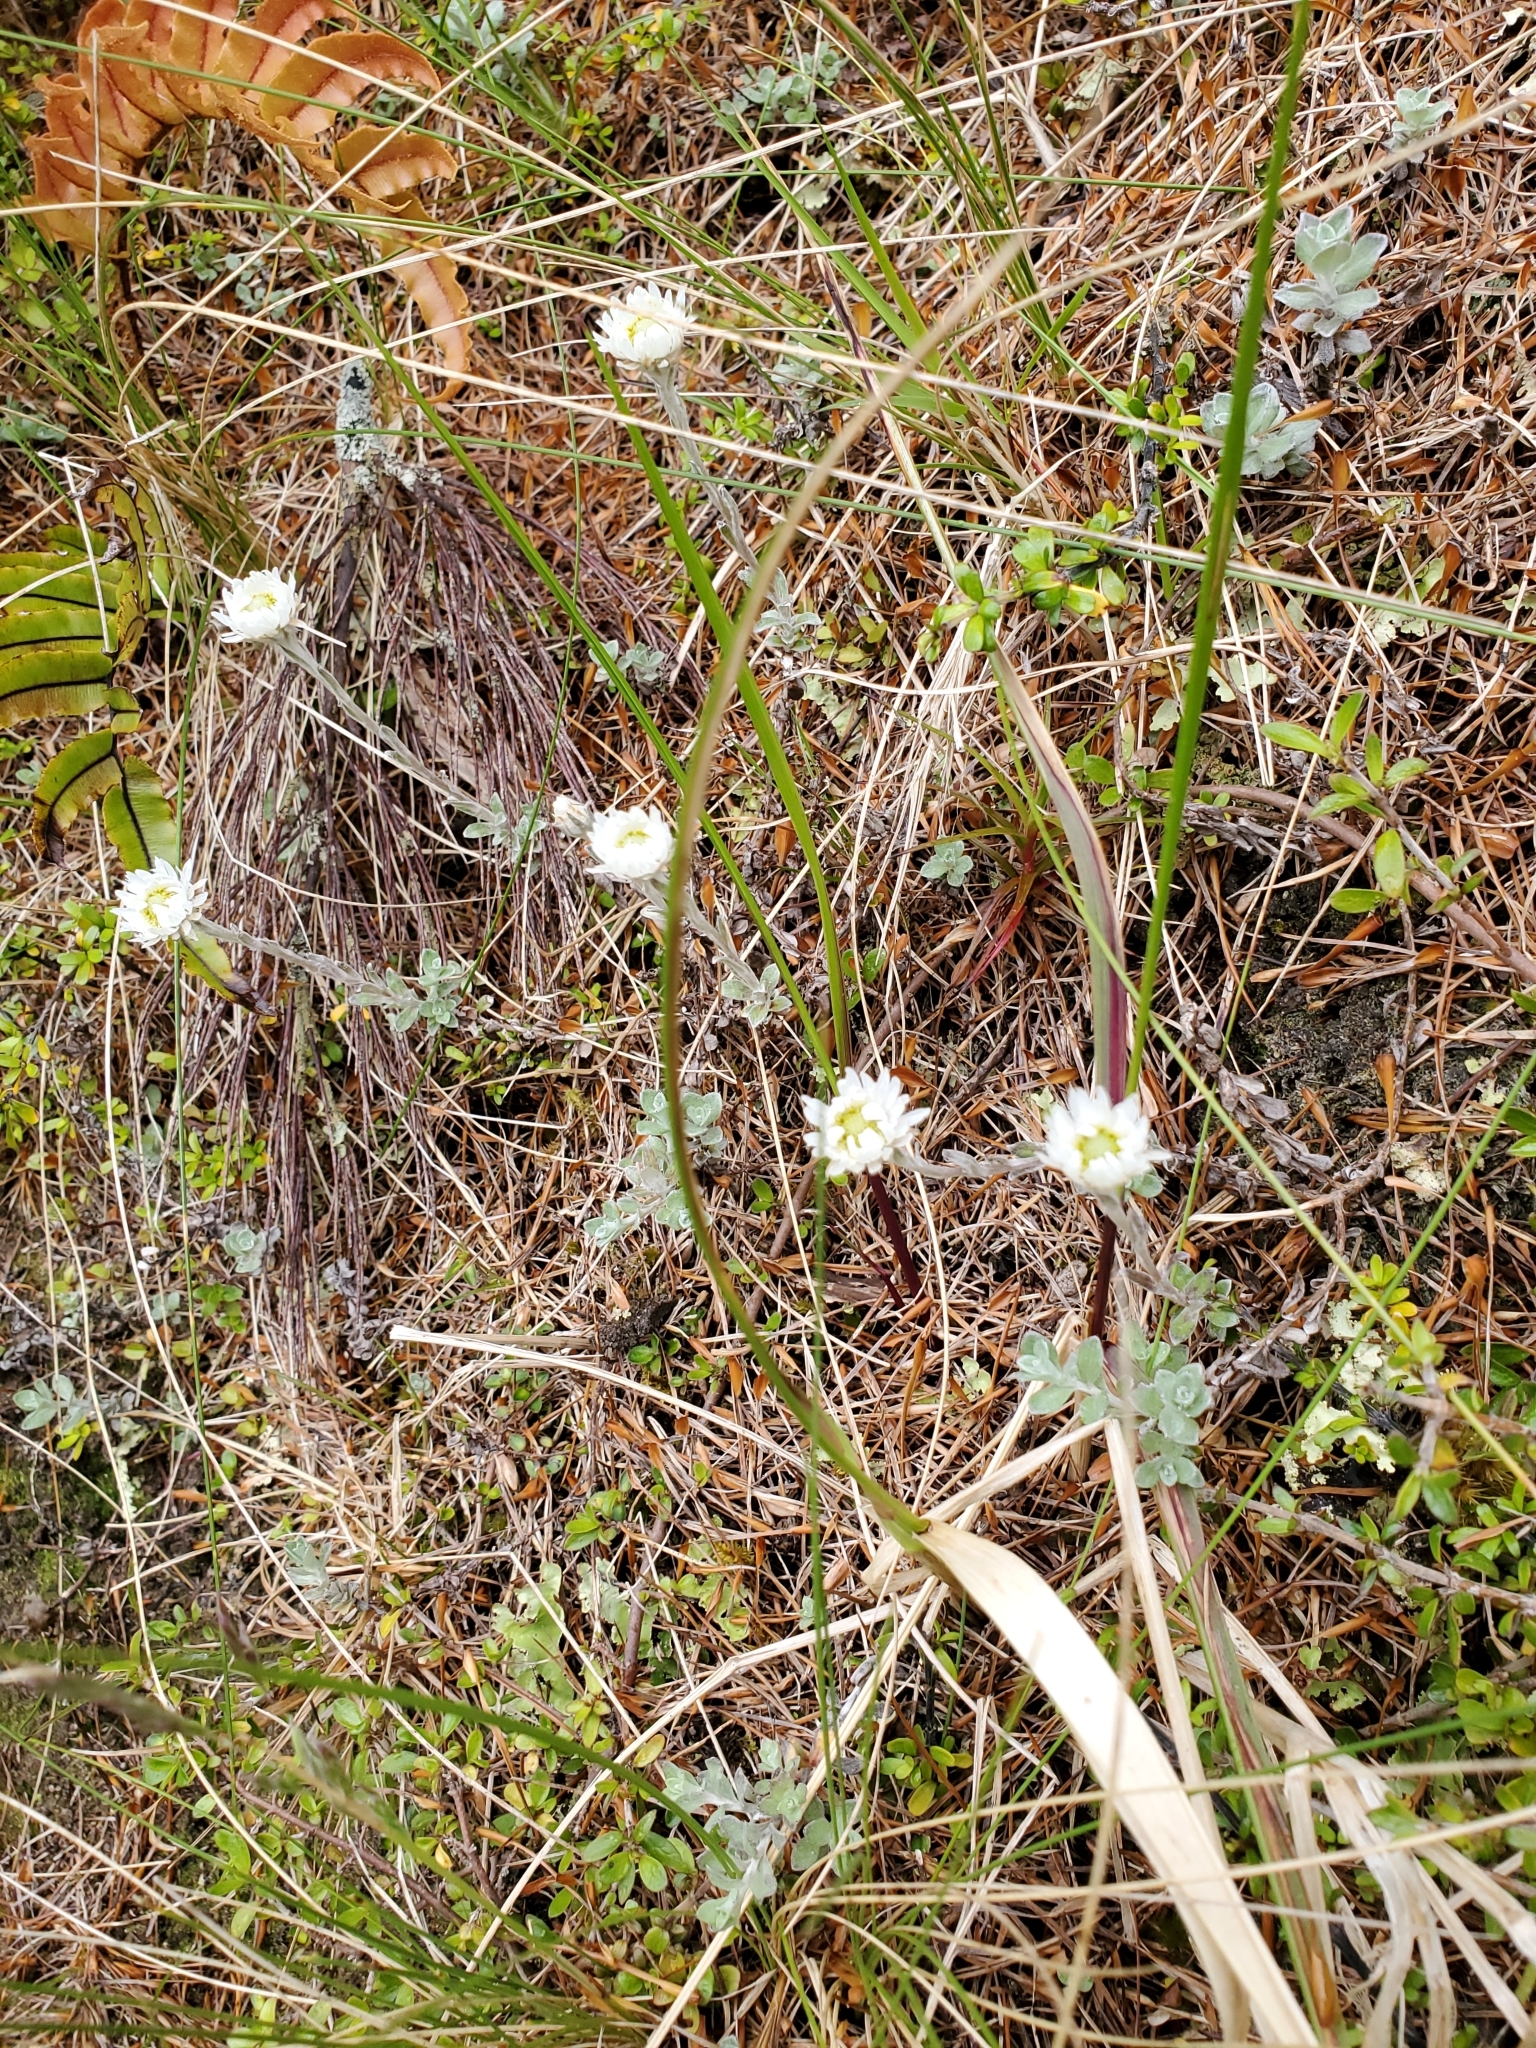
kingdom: Plantae
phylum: Tracheophyta
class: Magnoliopsida
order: Asterales
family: Asteraceae
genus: Anaphalioides
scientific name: Anaphalioides bellidioides
